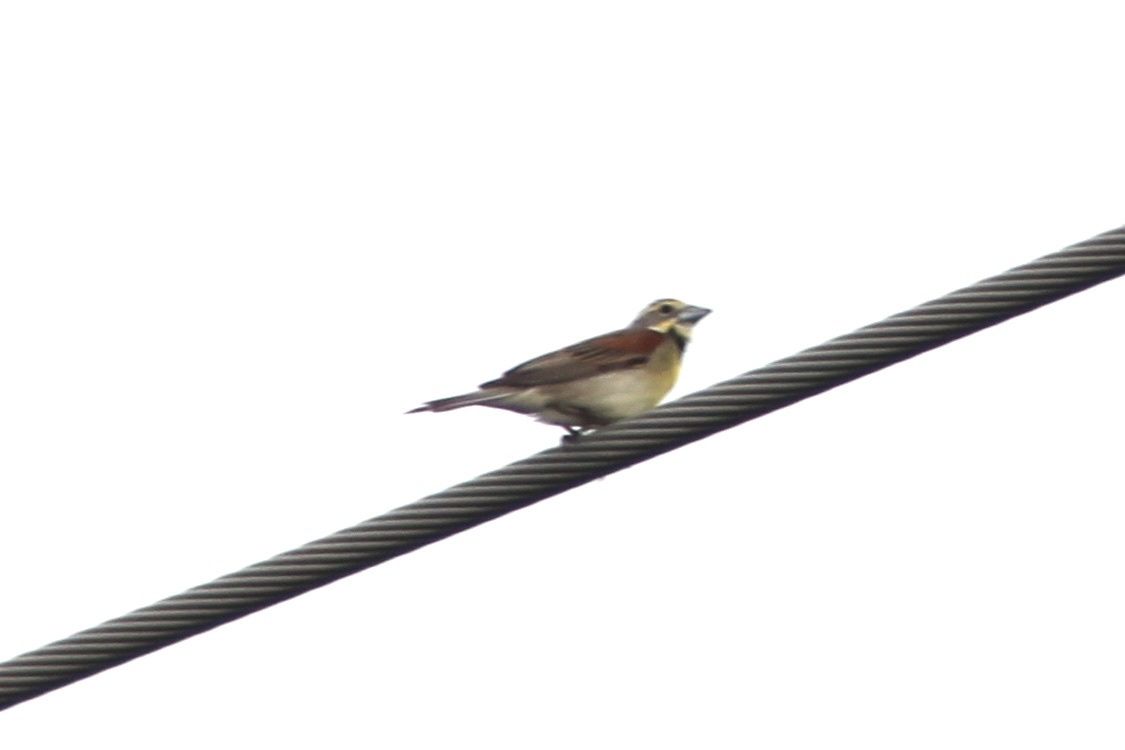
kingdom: Animalia
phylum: Chordata
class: Aves
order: Passeriformes
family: Cardinalidae
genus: Spiza
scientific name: Spiza americana
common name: Dickcissel
